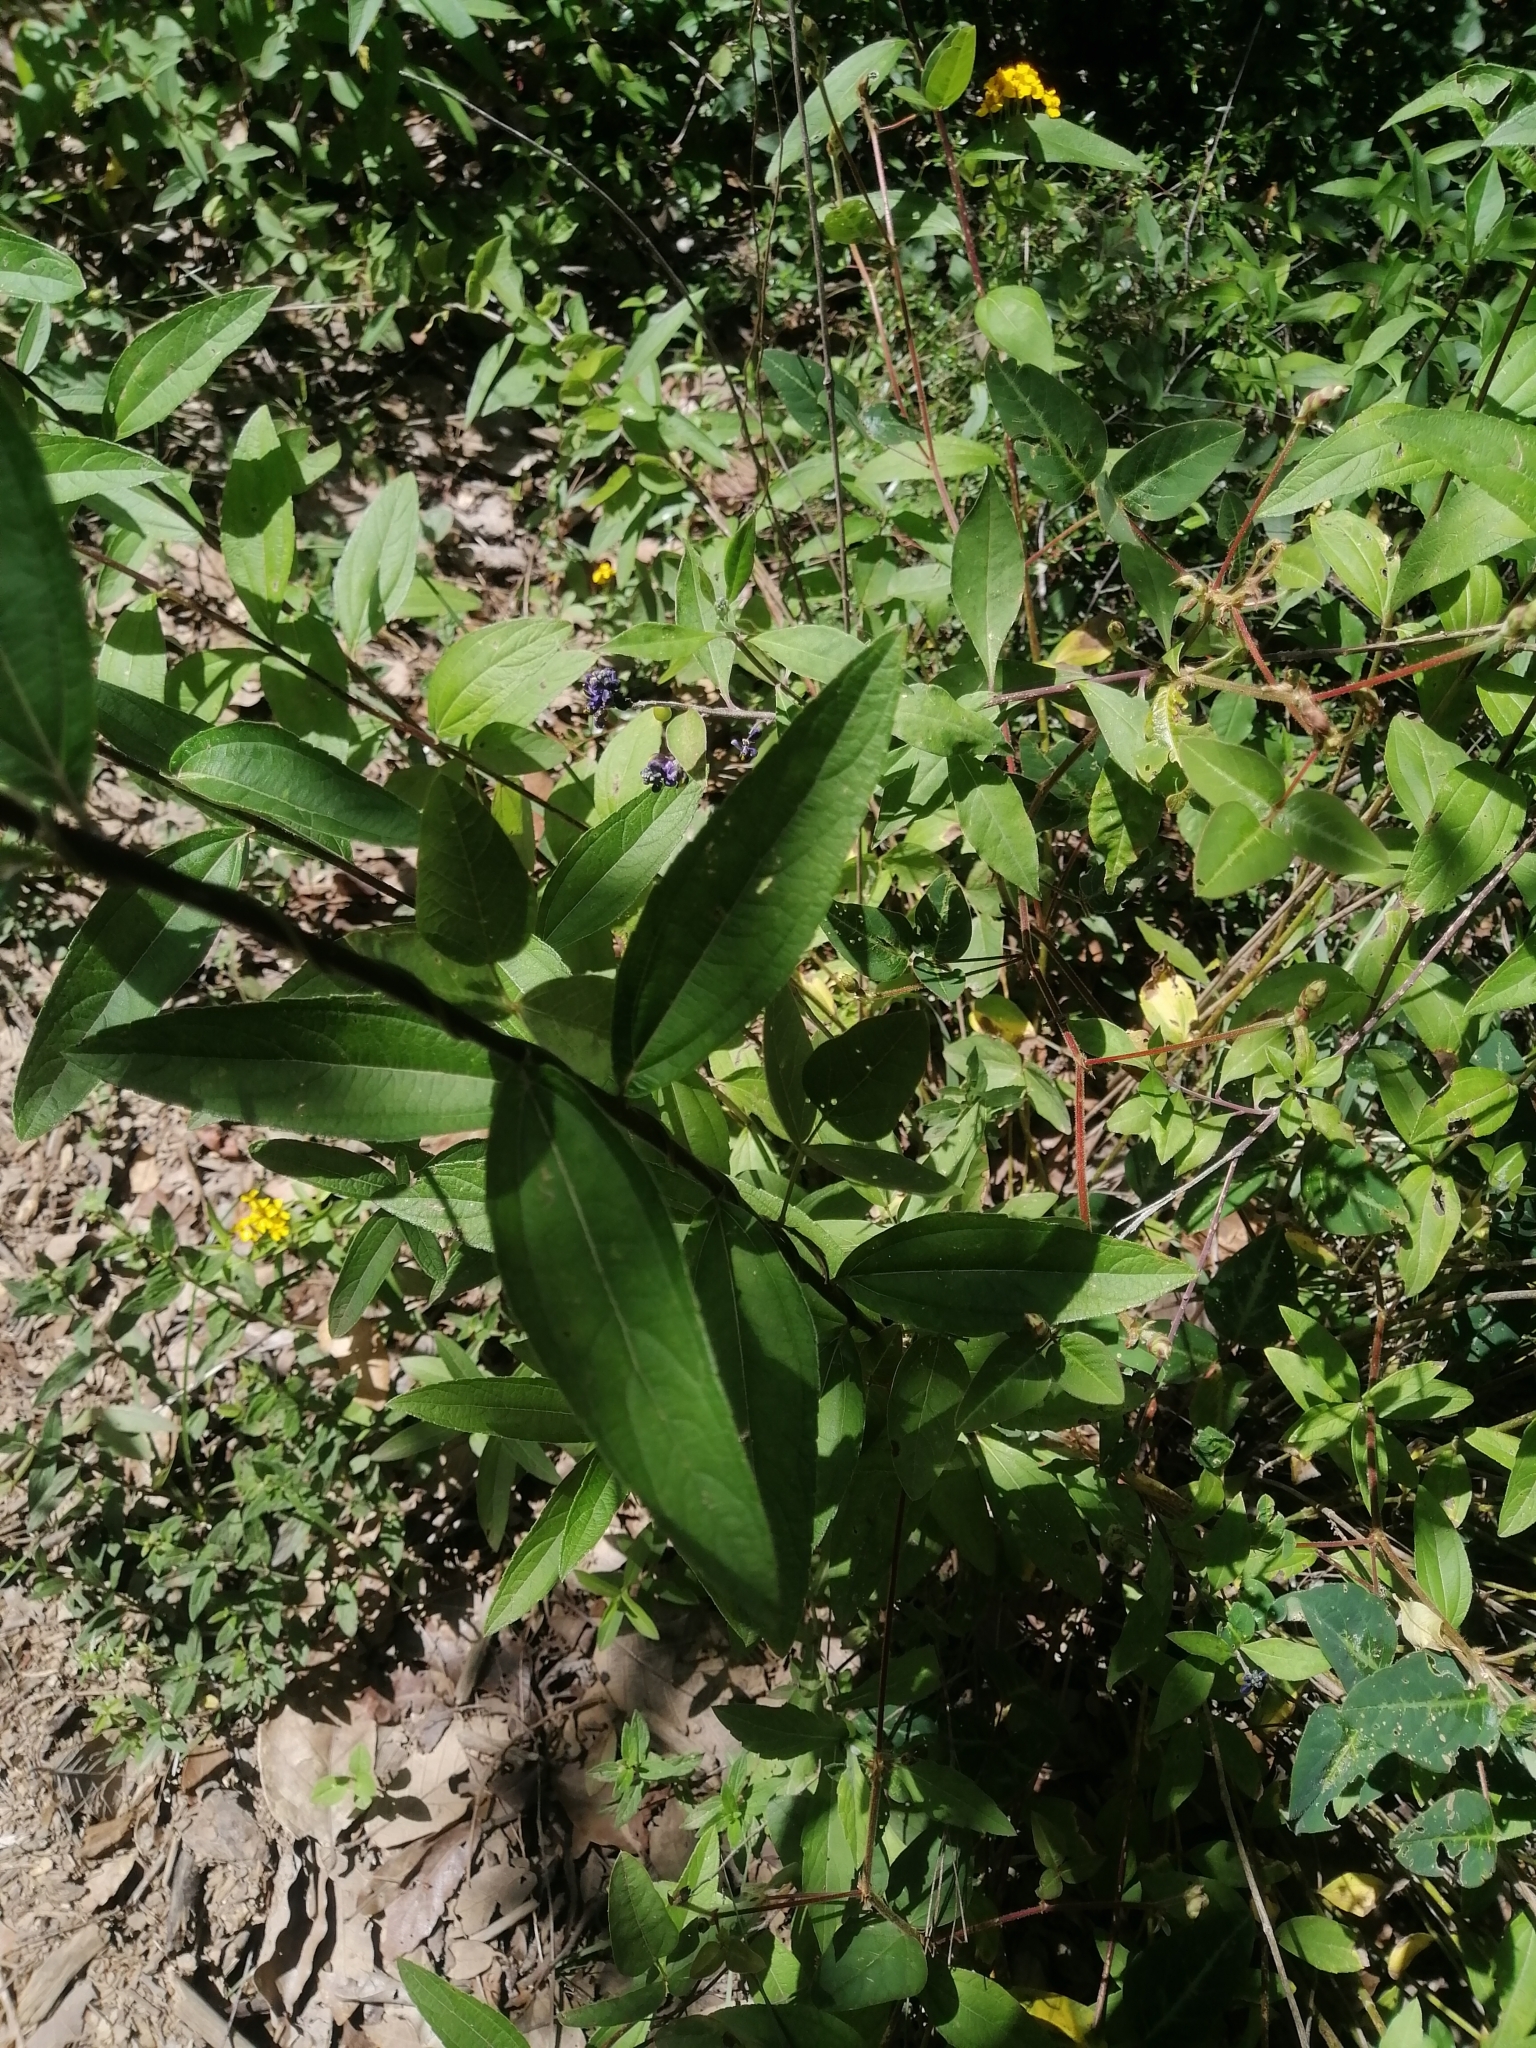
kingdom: Plantae
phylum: Tracheophyta
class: Magnoliopsida
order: Asterales
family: Asteraceae
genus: Aldama
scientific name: Aldama excelsa
